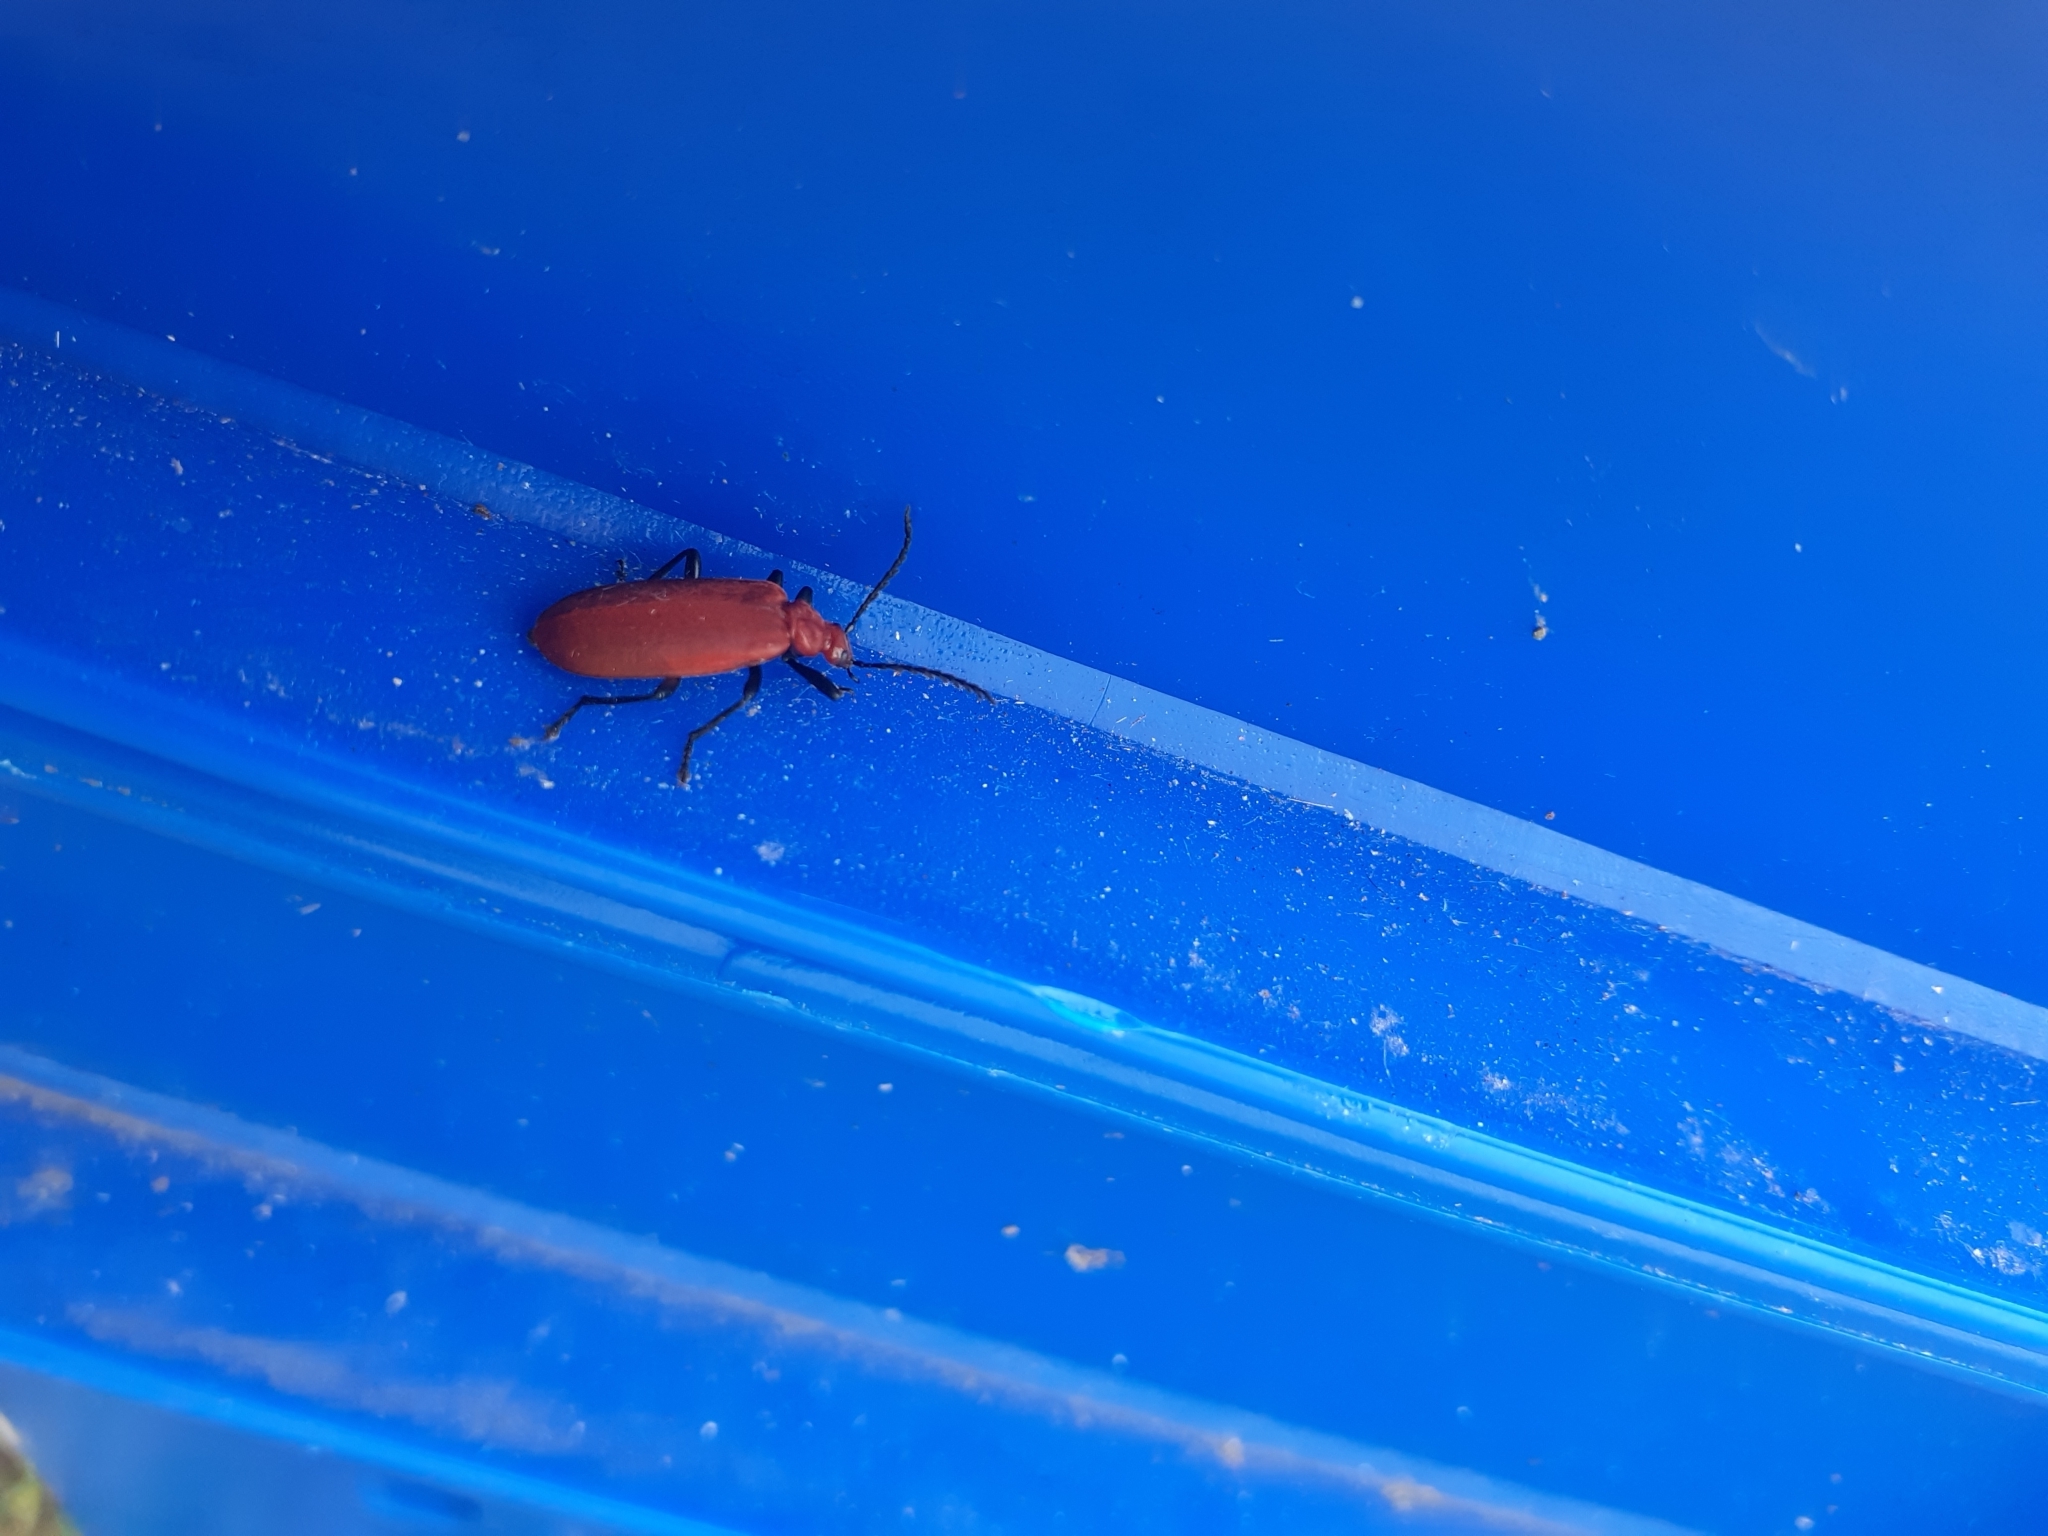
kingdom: Animalia
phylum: Arthropoda
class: Insecta
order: Coleoptera
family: Pyrochroidae
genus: Pyrochroa
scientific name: Pyrochroa serraticornis
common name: Red-headed cardinal beetle
